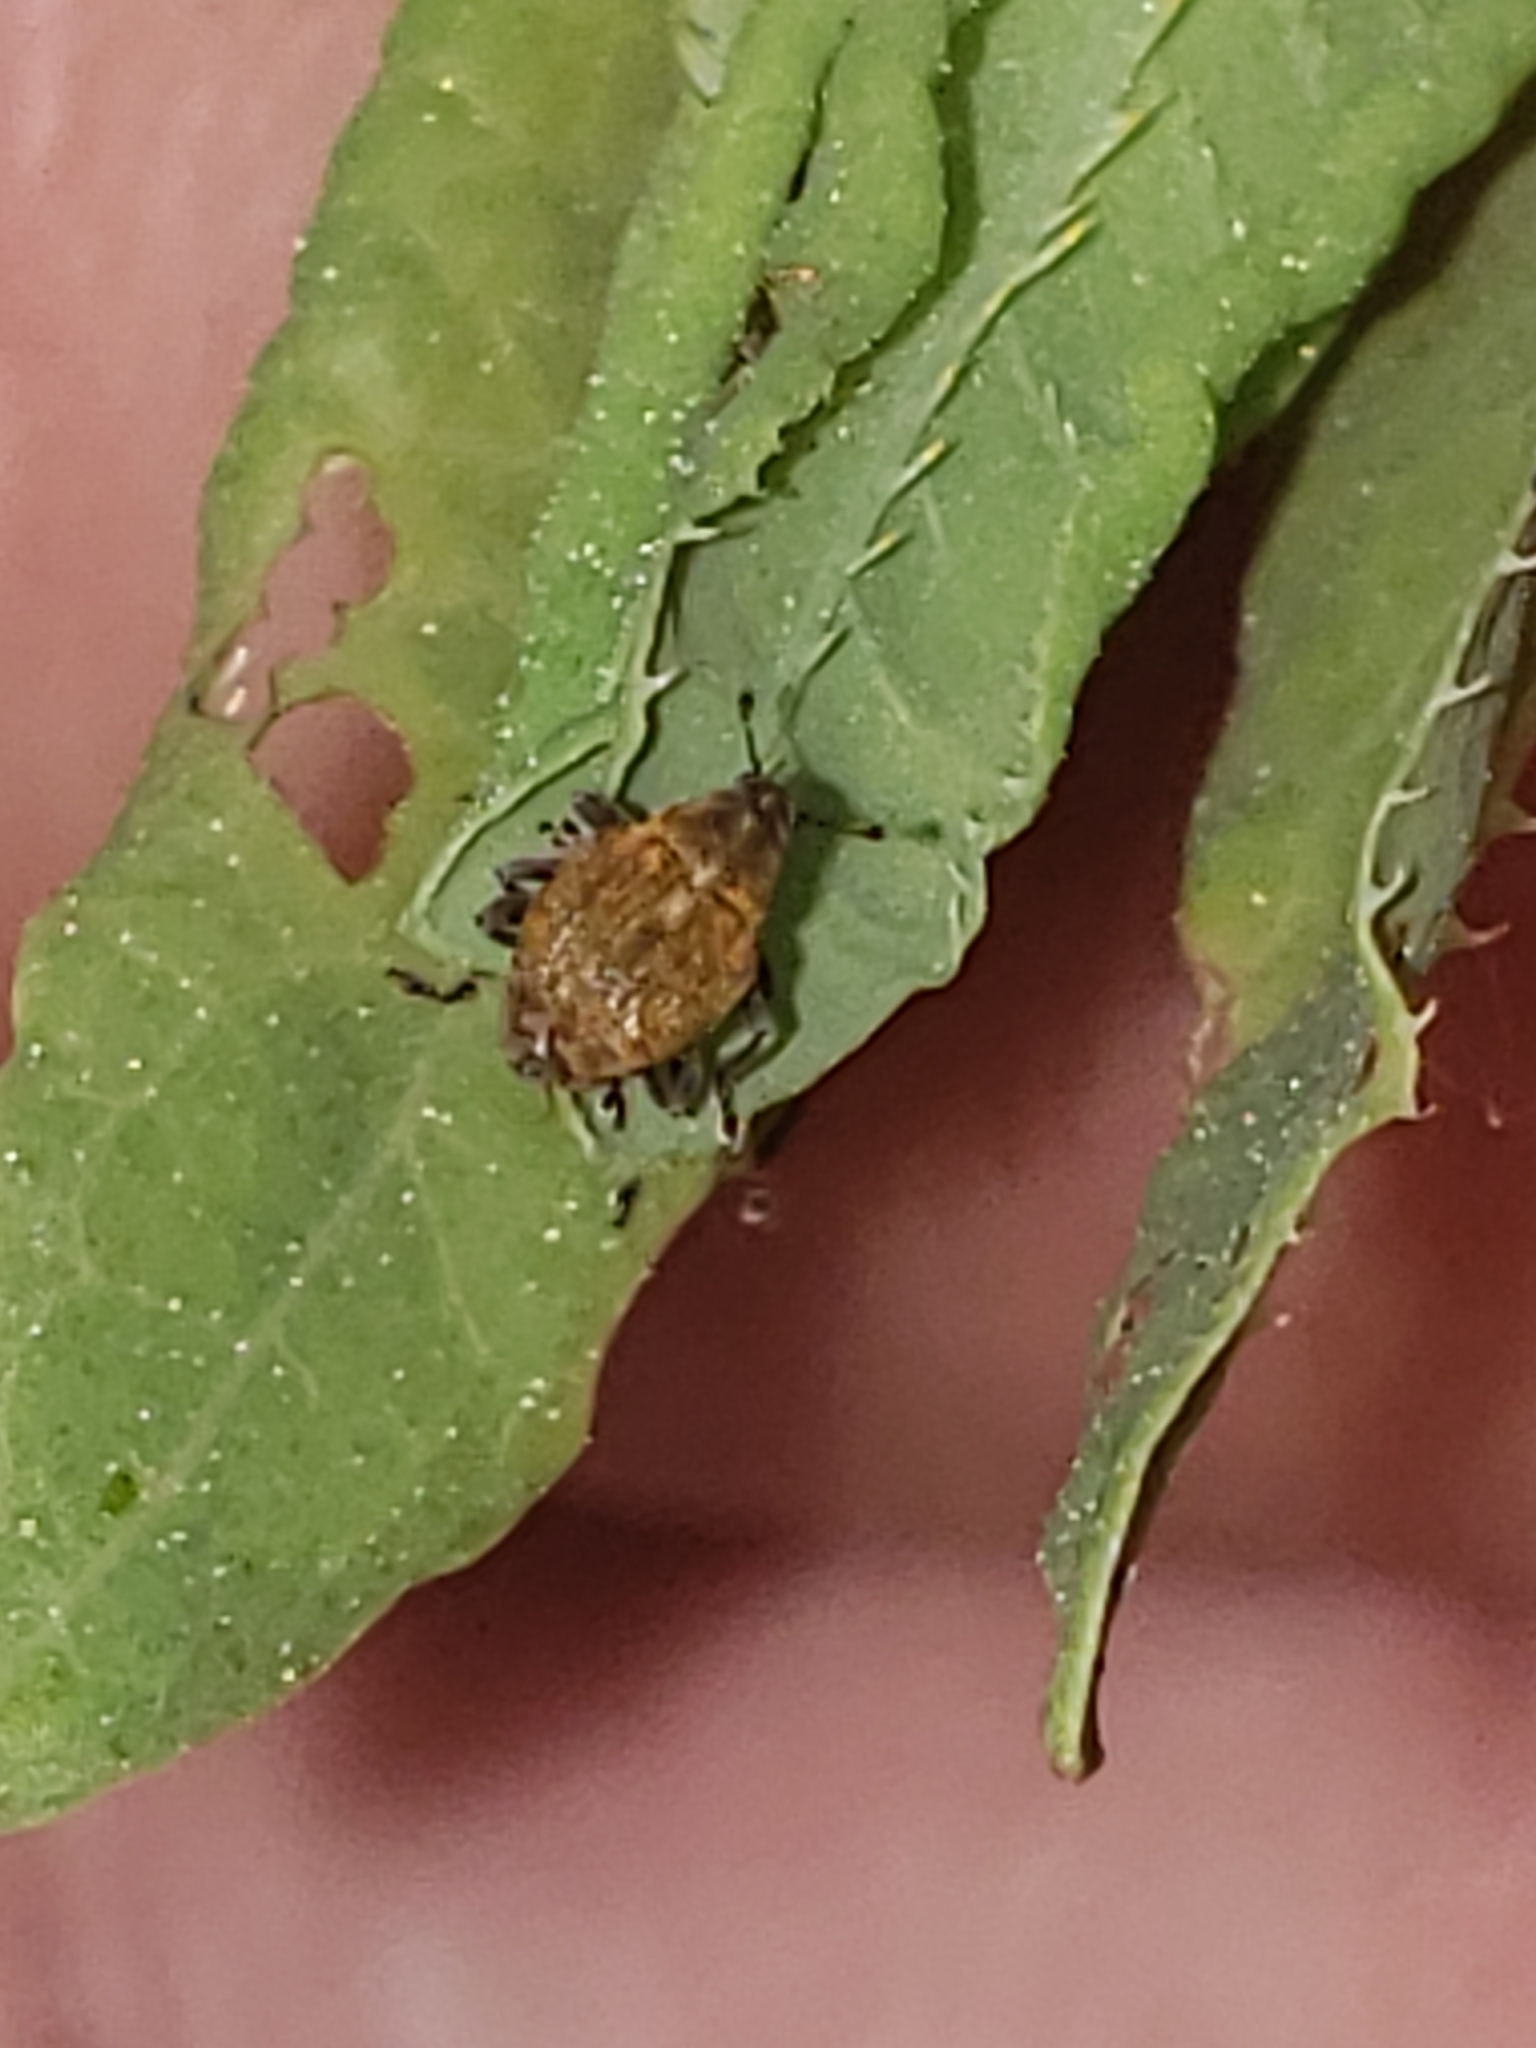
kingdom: Animalia
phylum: Arthropoda
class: Insecta
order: Coleoptera
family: Curculionidae
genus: Rhinoncomimus
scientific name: Rhinoncomimus latipes
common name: Chinese weevil
